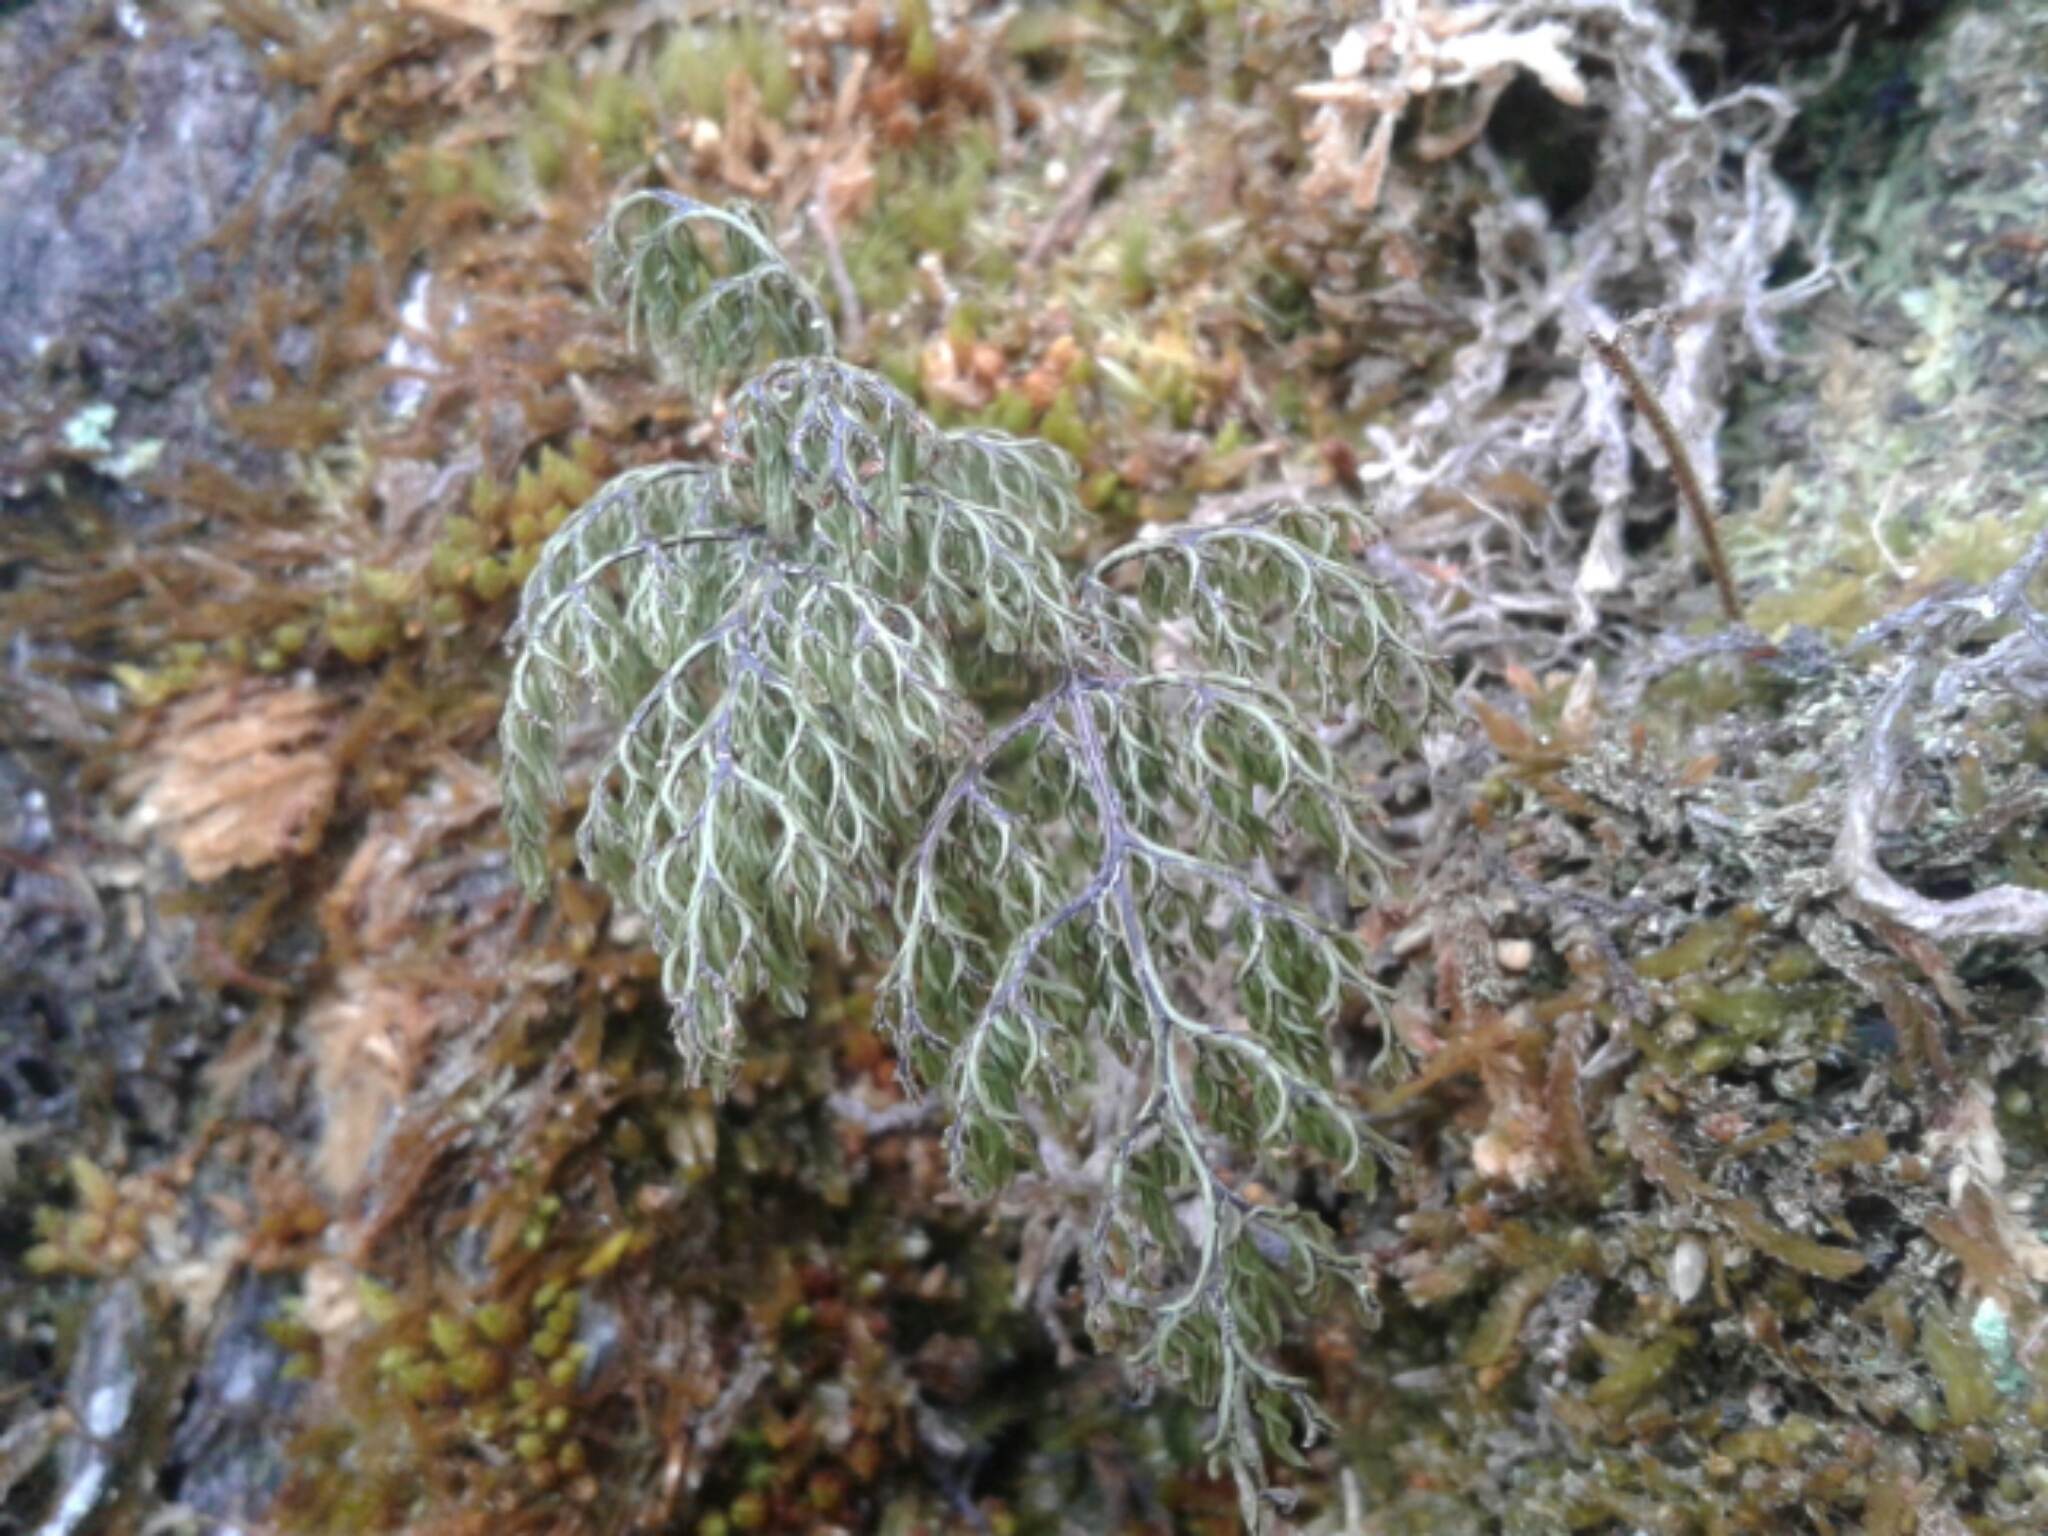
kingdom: Plantae
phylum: Tracheophyta
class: Polypodiopsida
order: Hymenophyllales
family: Hymenophyllaceae
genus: Hymenophyllum
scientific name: Hymenophyllum
